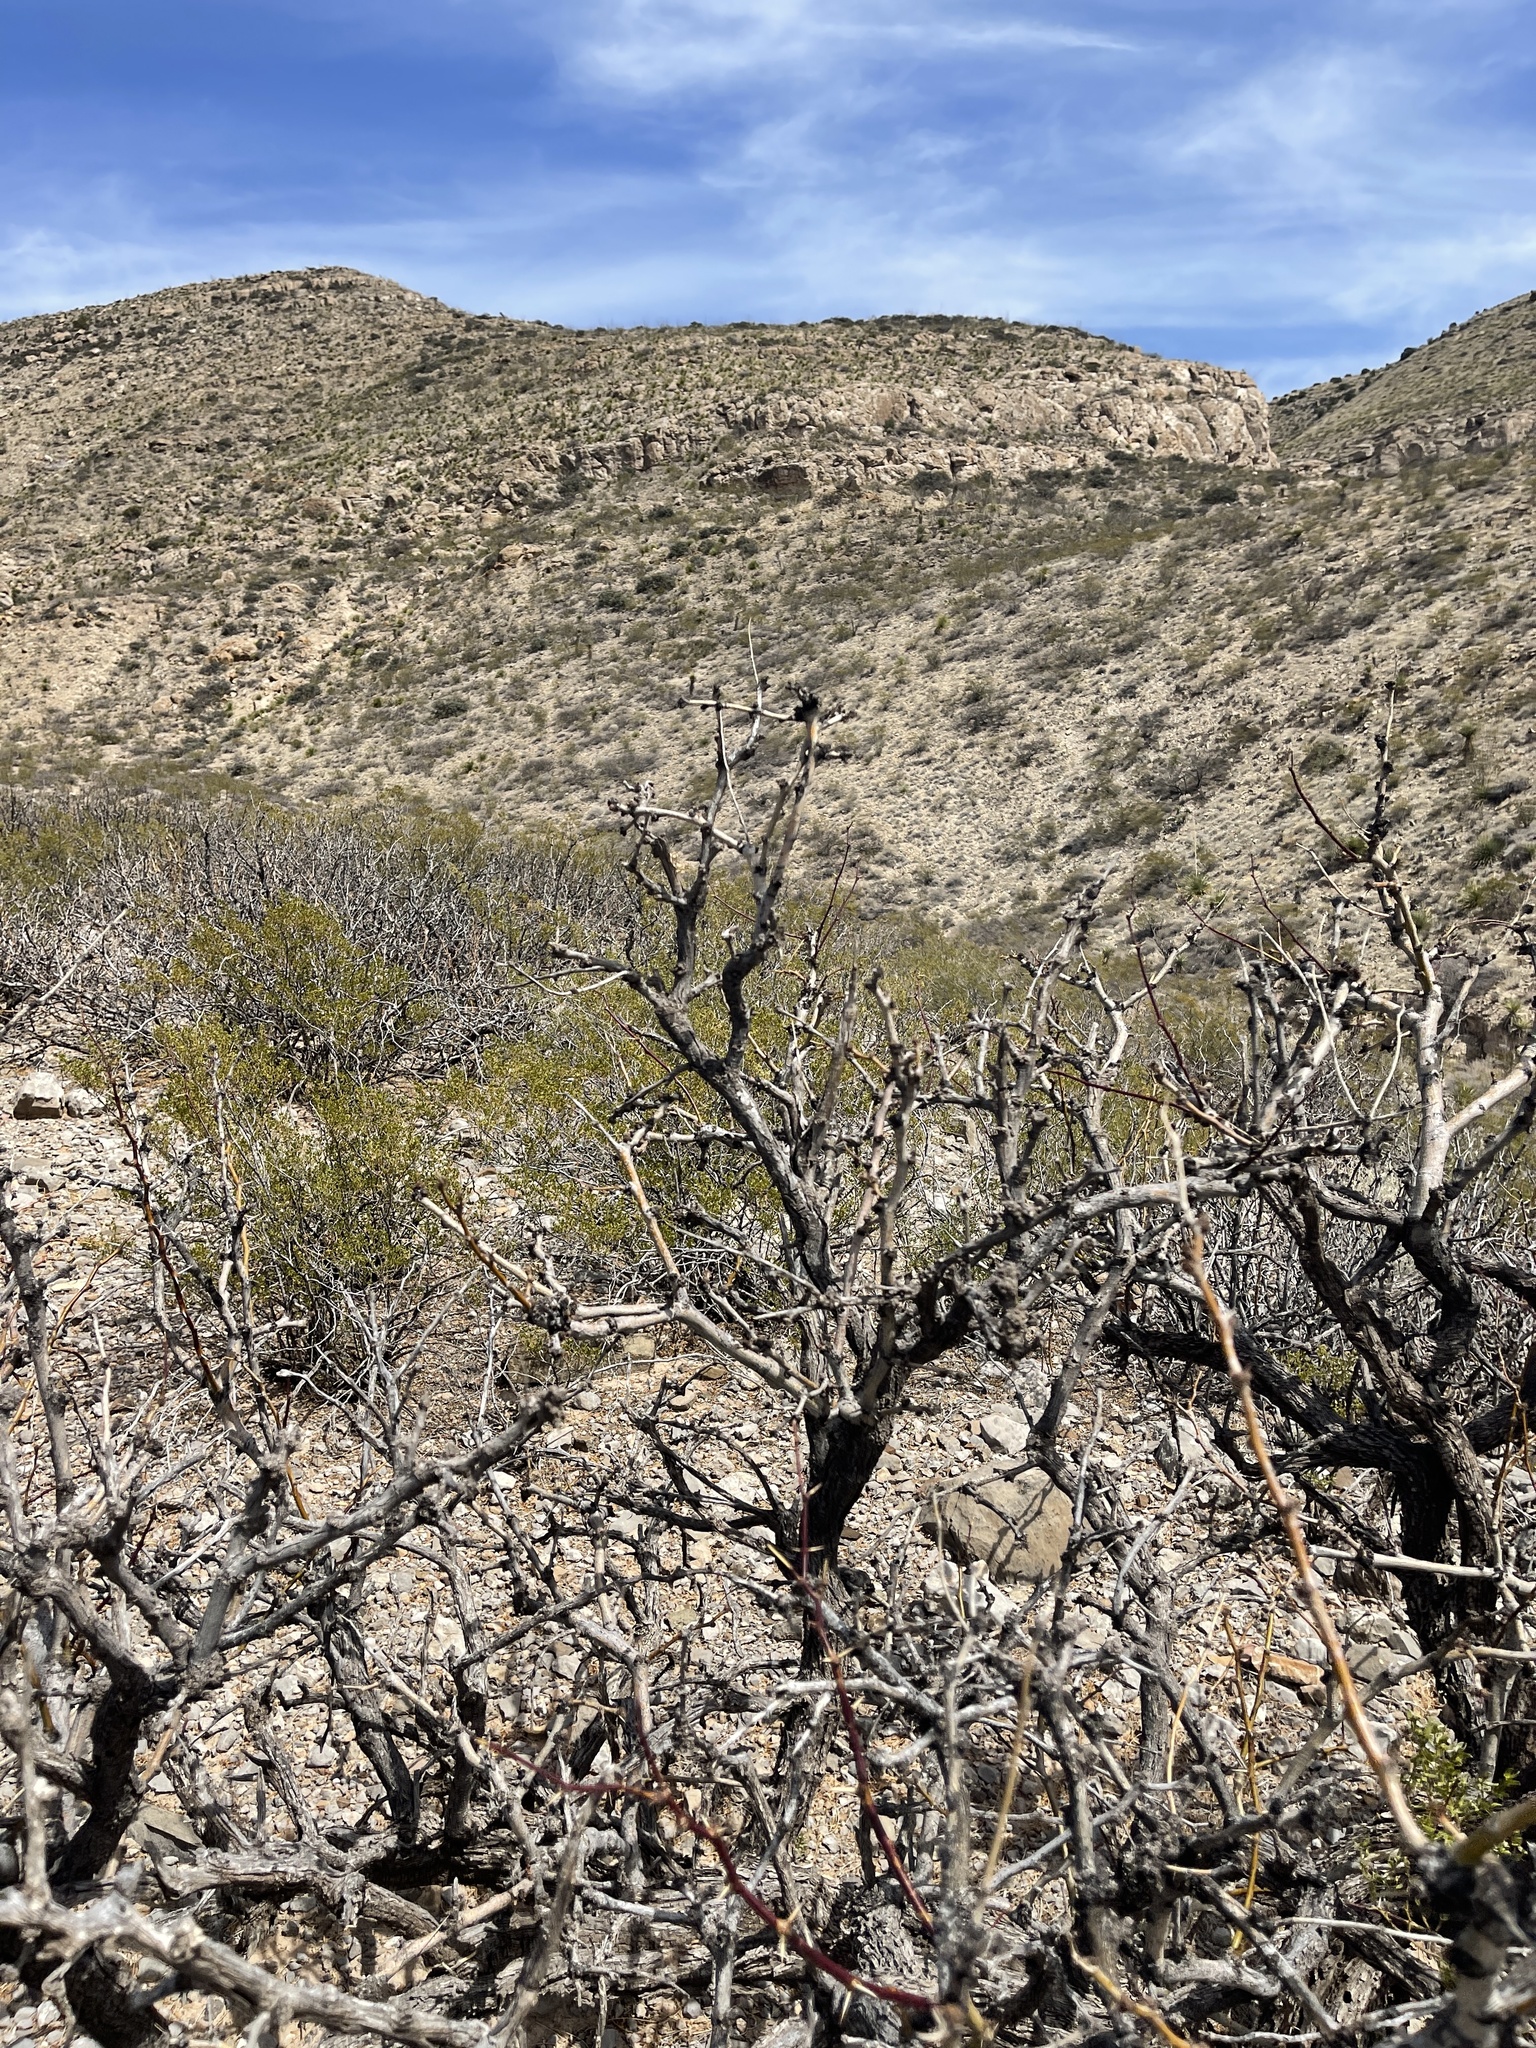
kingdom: Plantae
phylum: Tracheophyta
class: Magnoliopsida
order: Fabales
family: Fabaceae
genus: Prosopis
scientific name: Prosopis glandulosa
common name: Honey mesquite
